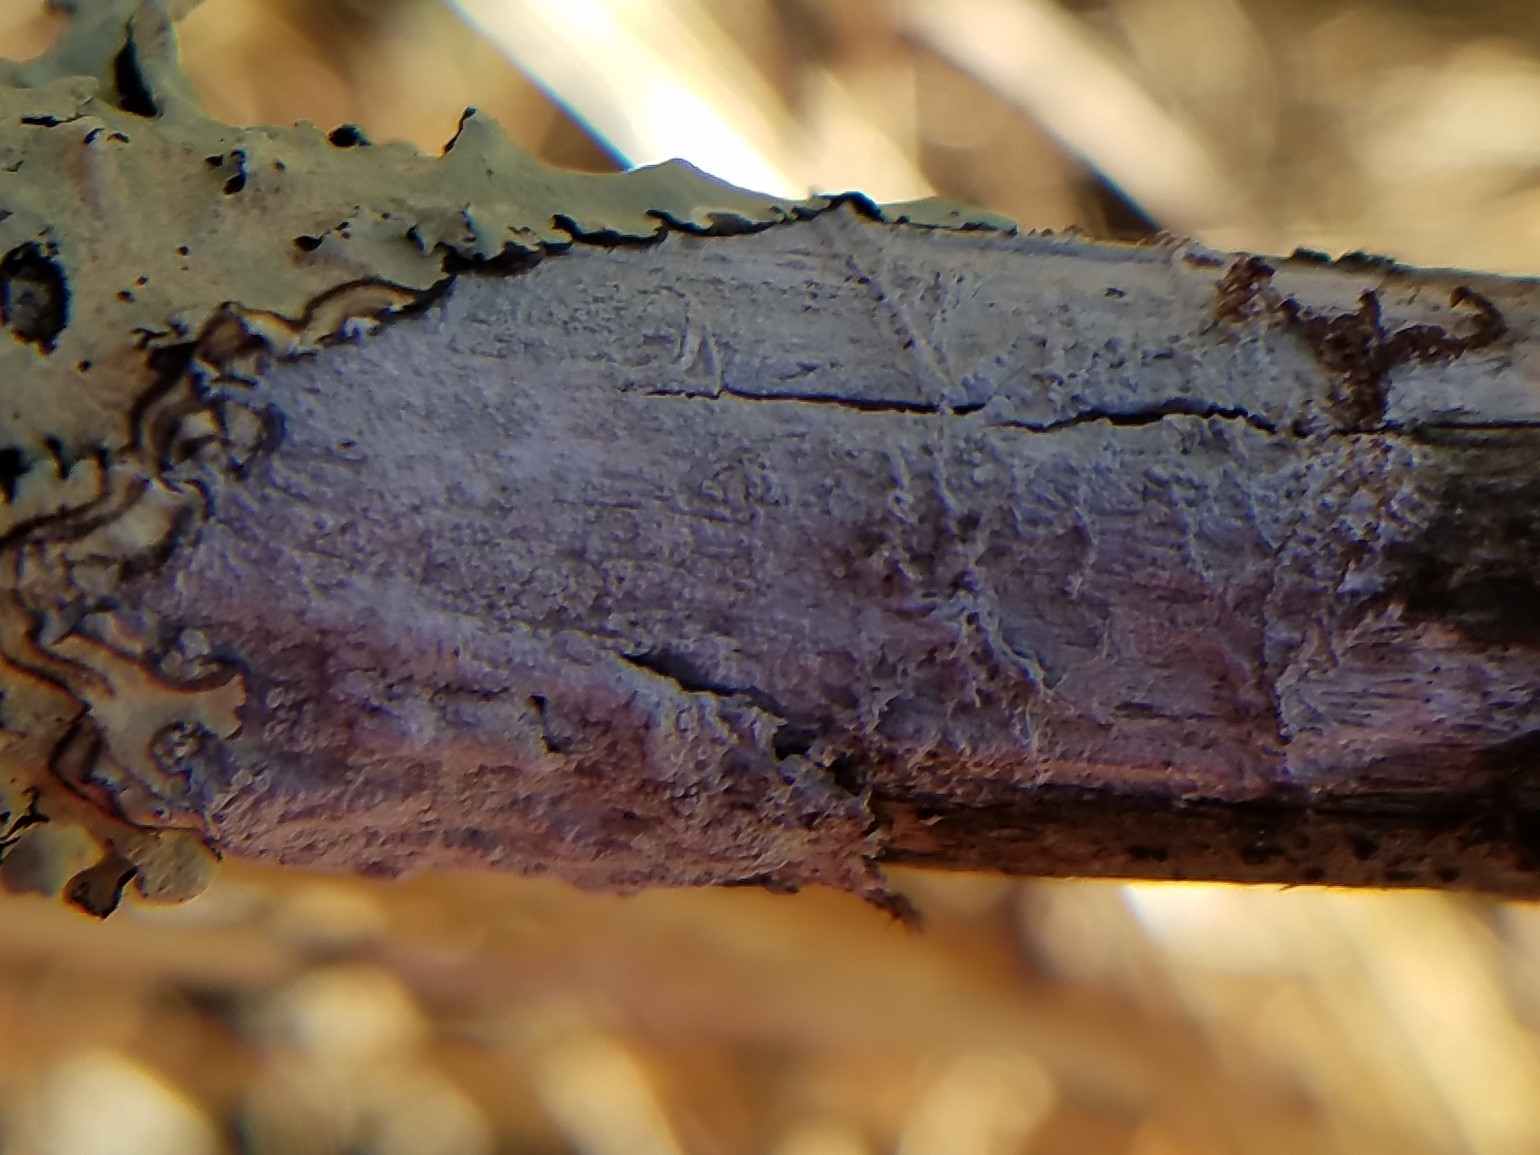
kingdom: Fungi
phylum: Ascomycota
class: Lecanoromycetes
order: Pertusariales
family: Pertusariaceae
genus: Lepra
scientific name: Lepra pustulata
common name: Pustule crust lichen
